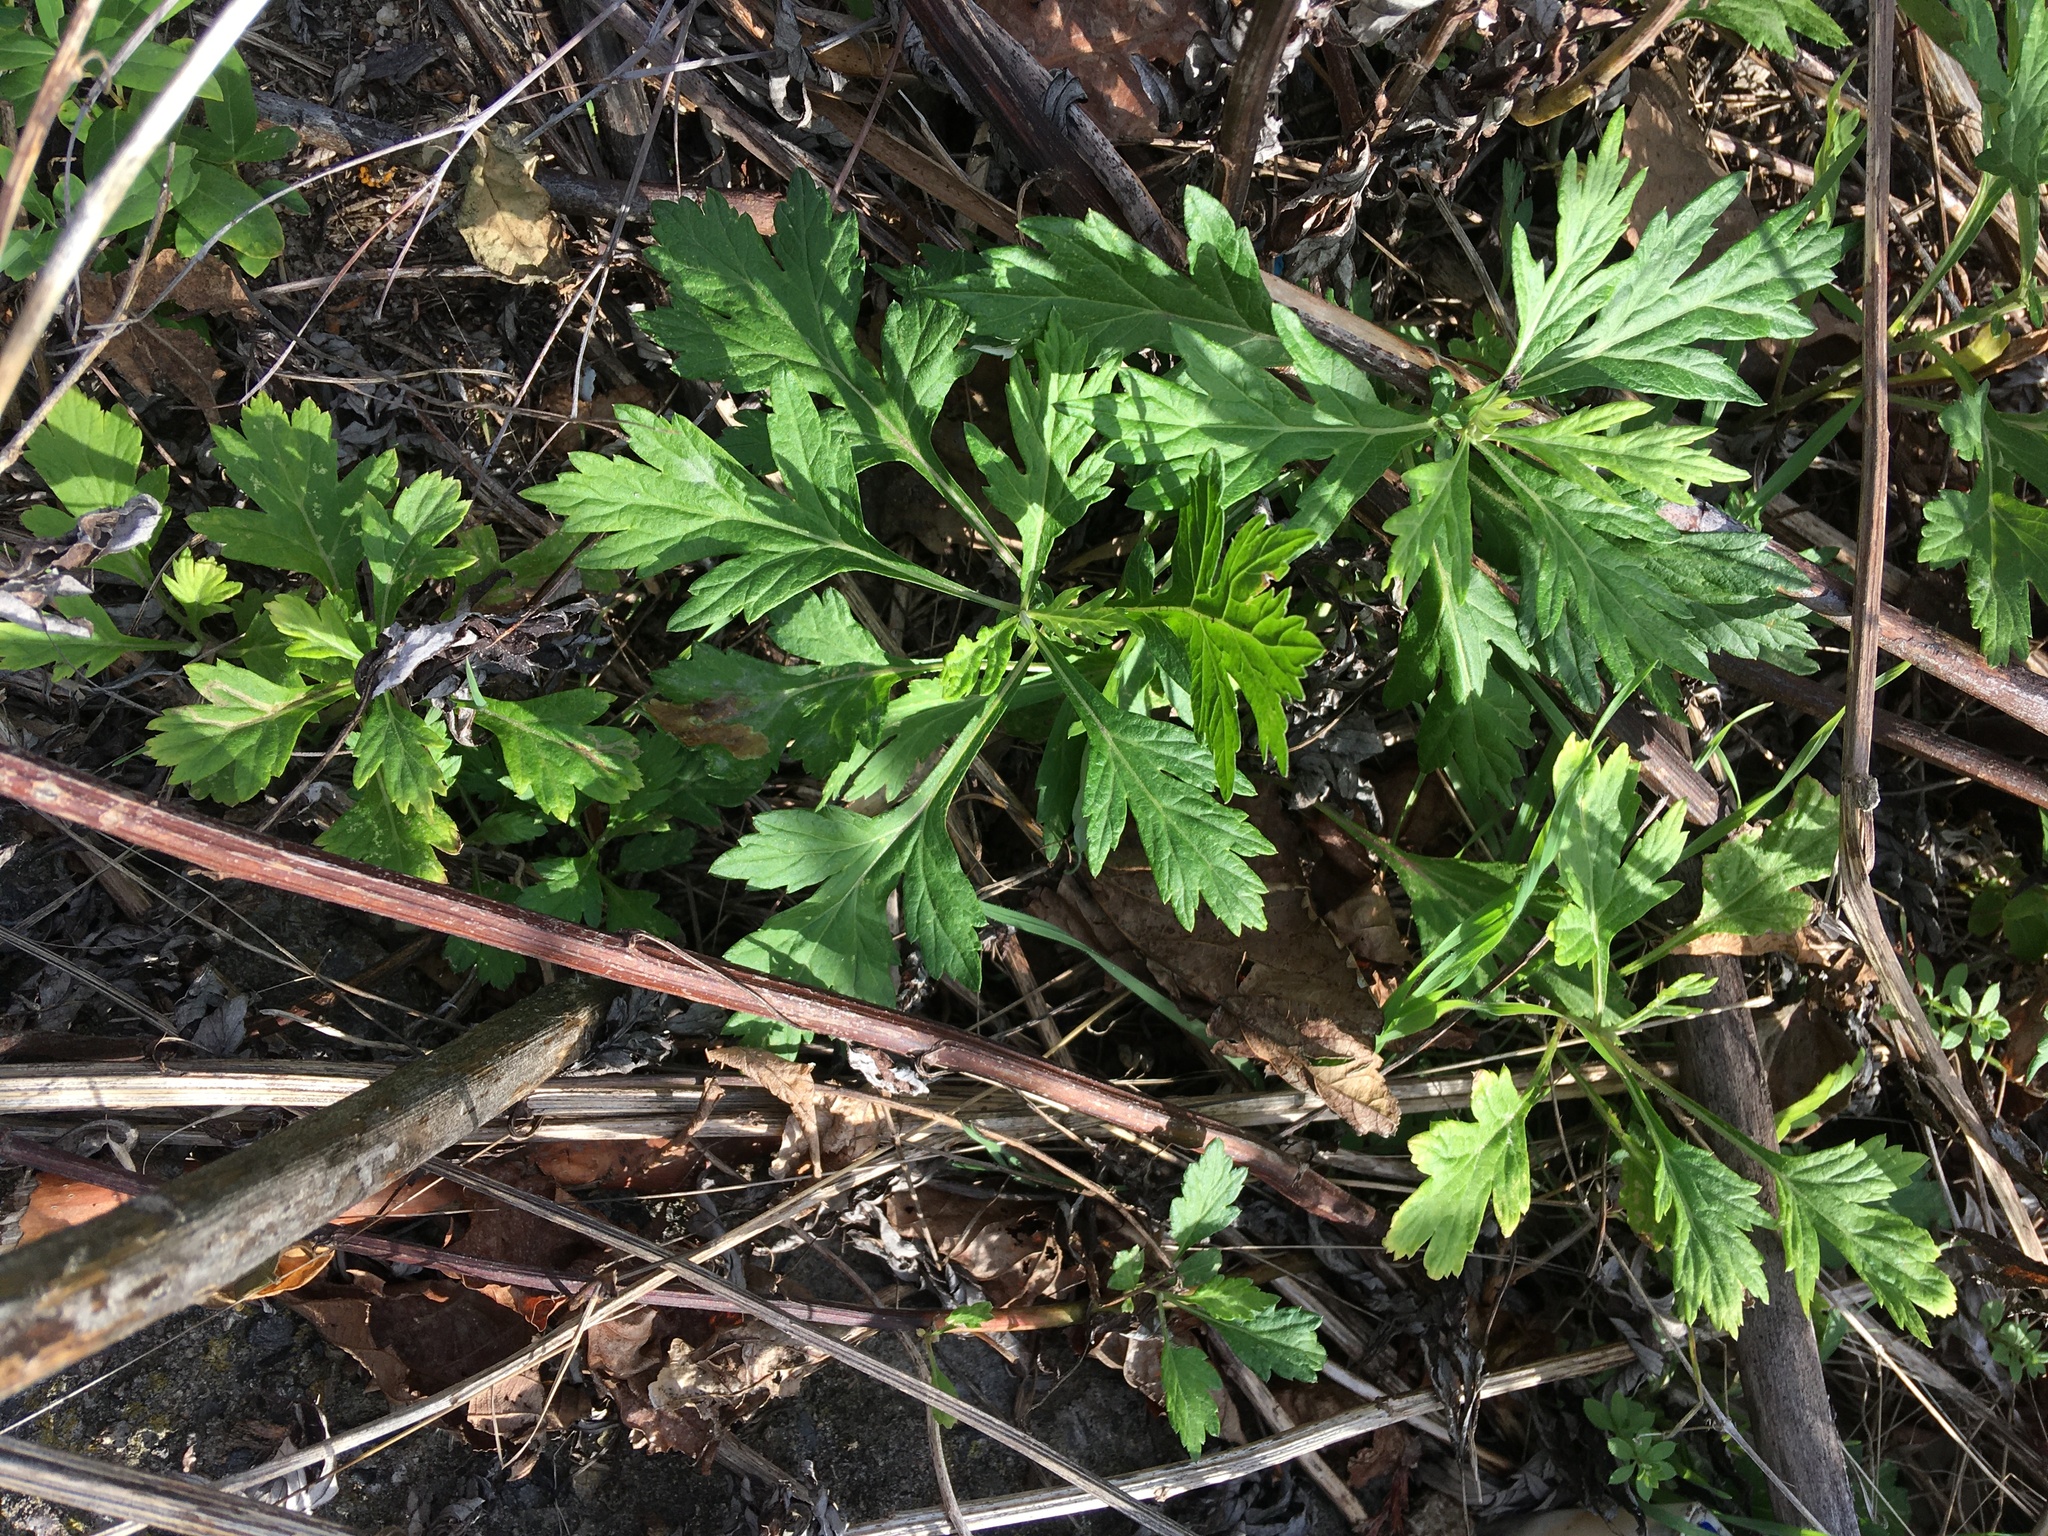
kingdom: Plantae
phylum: Tracheophyta
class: Magnoliopsida
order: Asterales
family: Asteraceae
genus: Artemisia
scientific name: Artemisia vulgaris
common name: Mugwort
